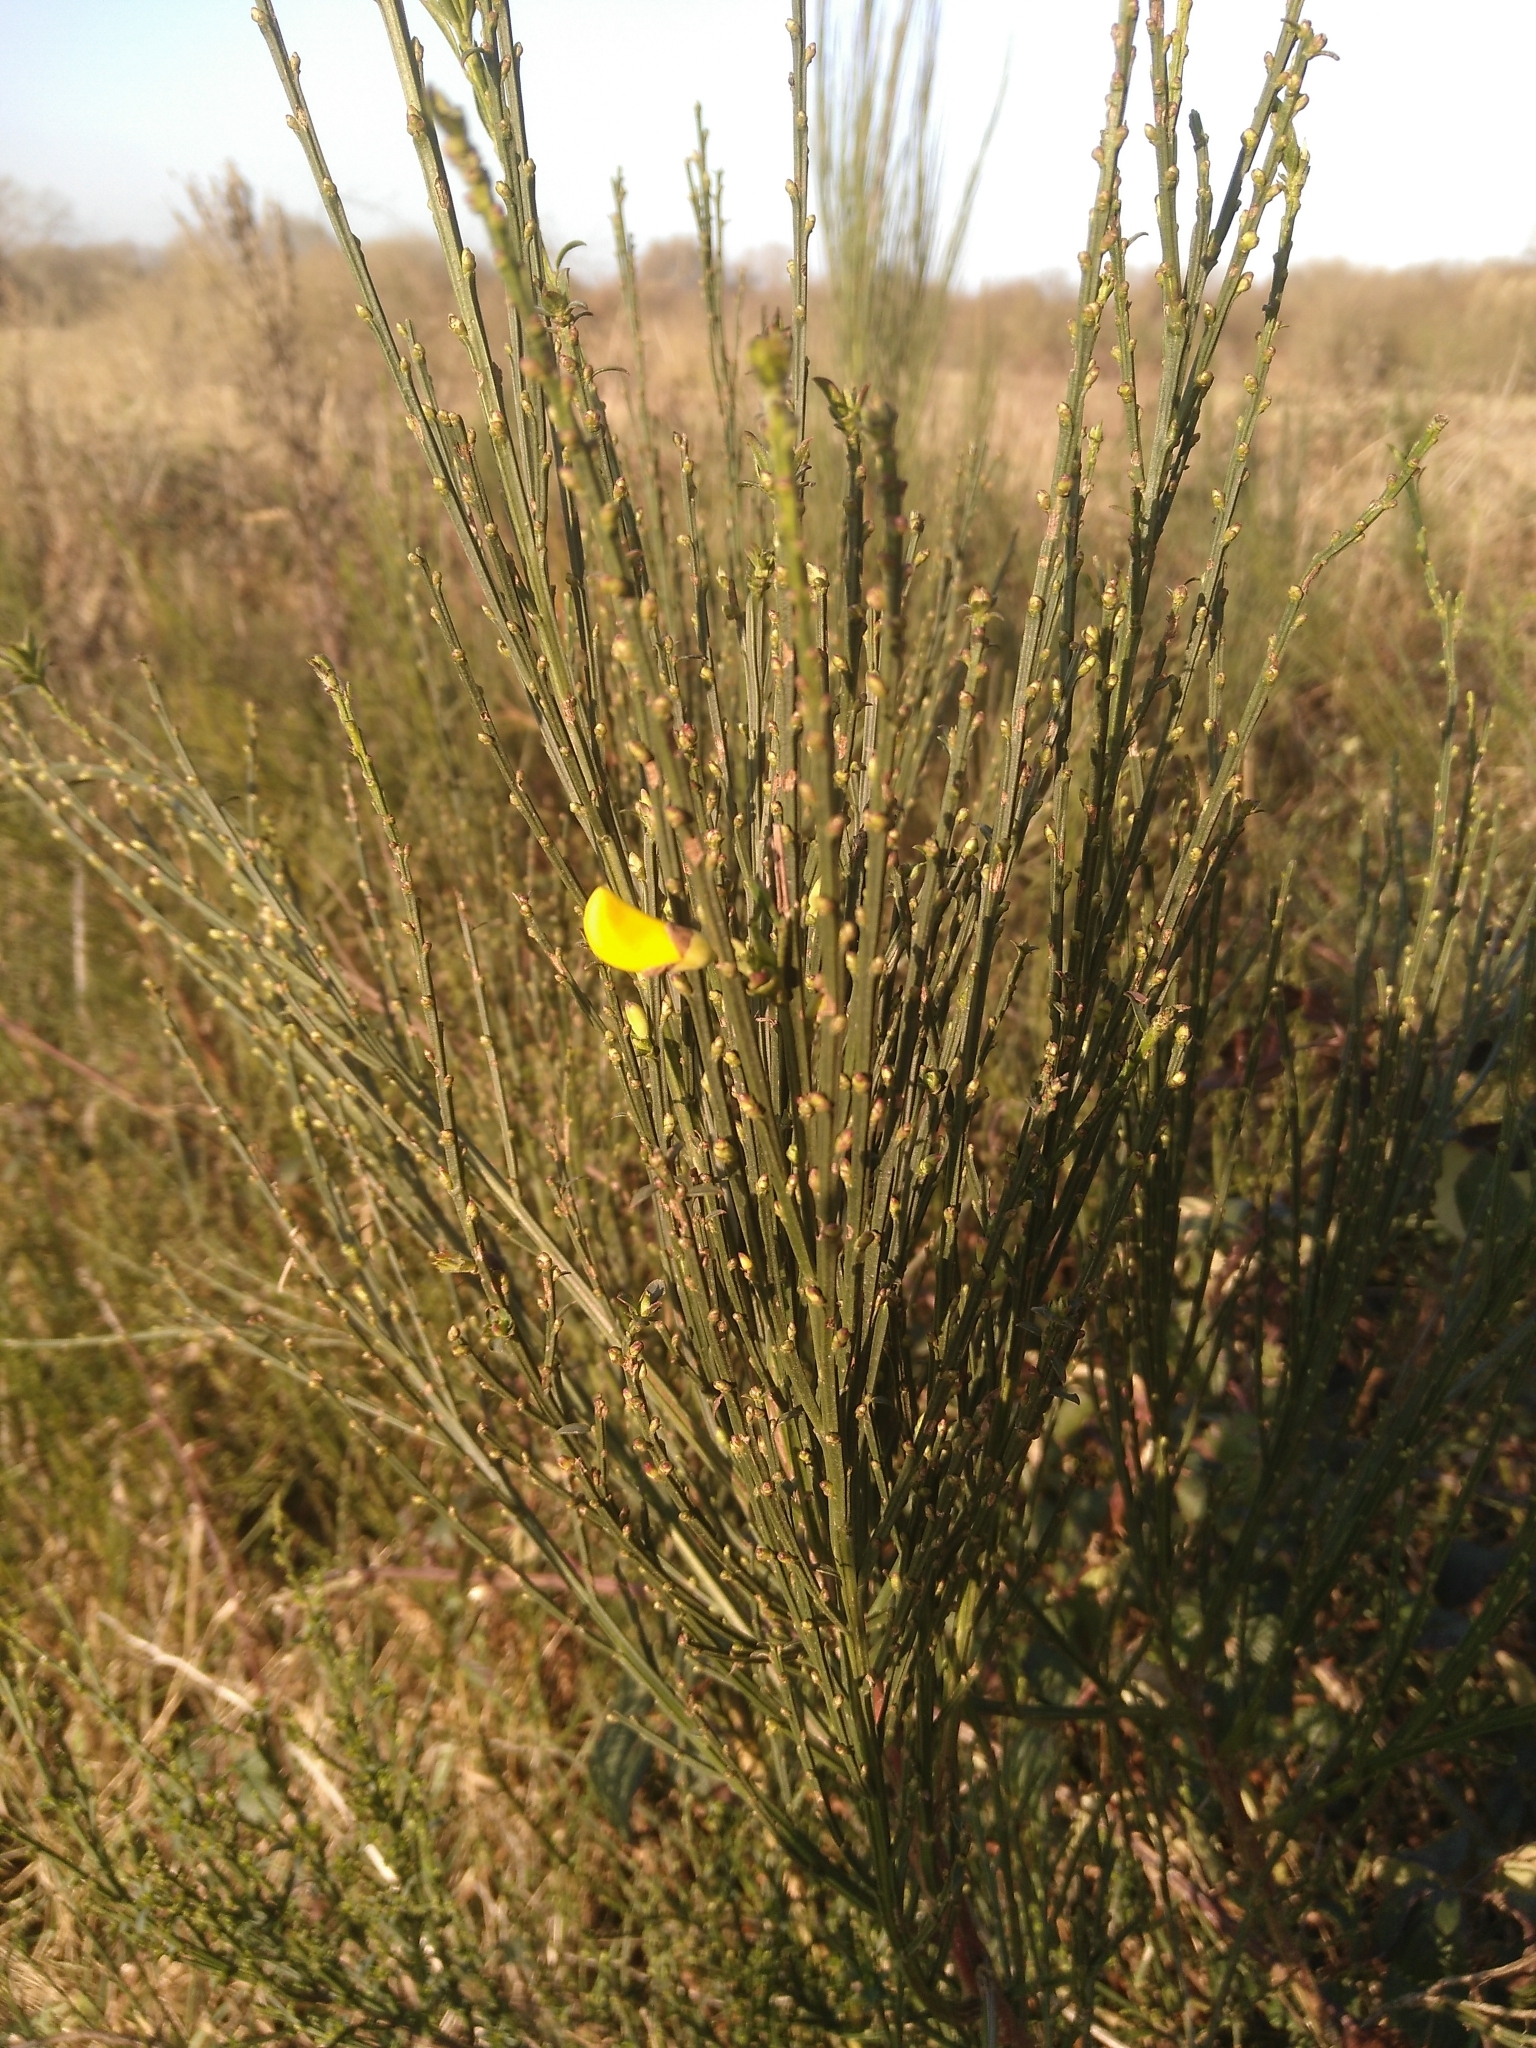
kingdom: Plantae
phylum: Tracheophyta
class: Magnoliopsida
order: Fabales
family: Fabaceae
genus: Cytisus
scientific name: Cytisus scoparius
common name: Scotch broom
